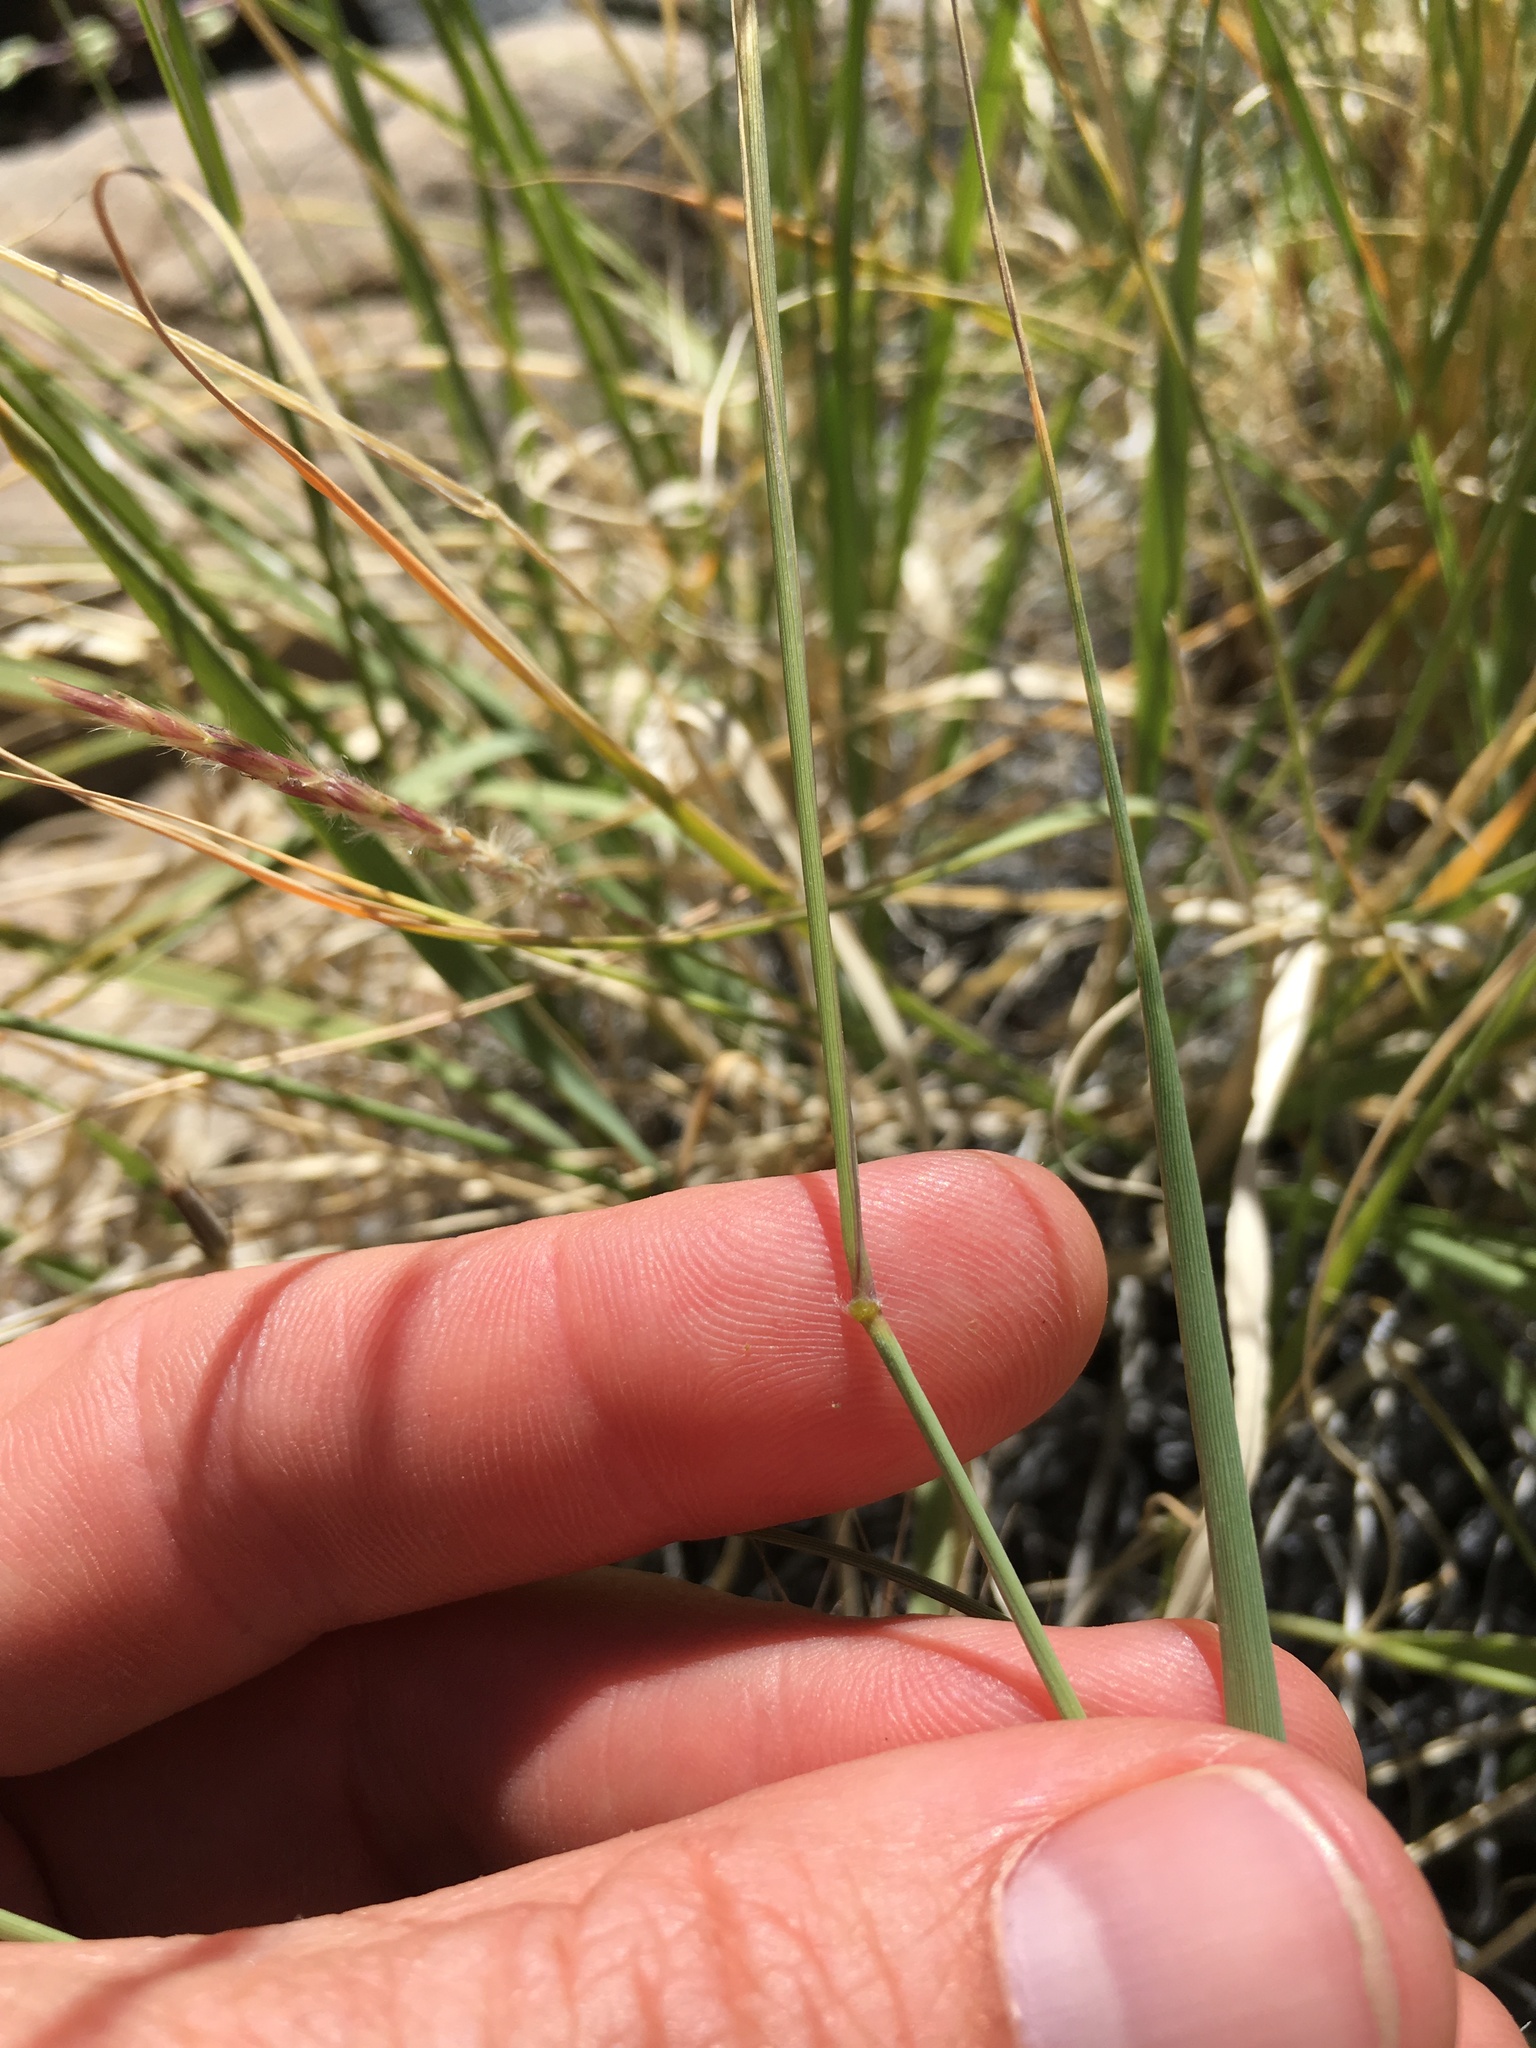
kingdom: Plantae
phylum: Tracheophyta
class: Liliopsida
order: Poales
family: Poaceae
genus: Hilaria
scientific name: Hilaria jamesii
